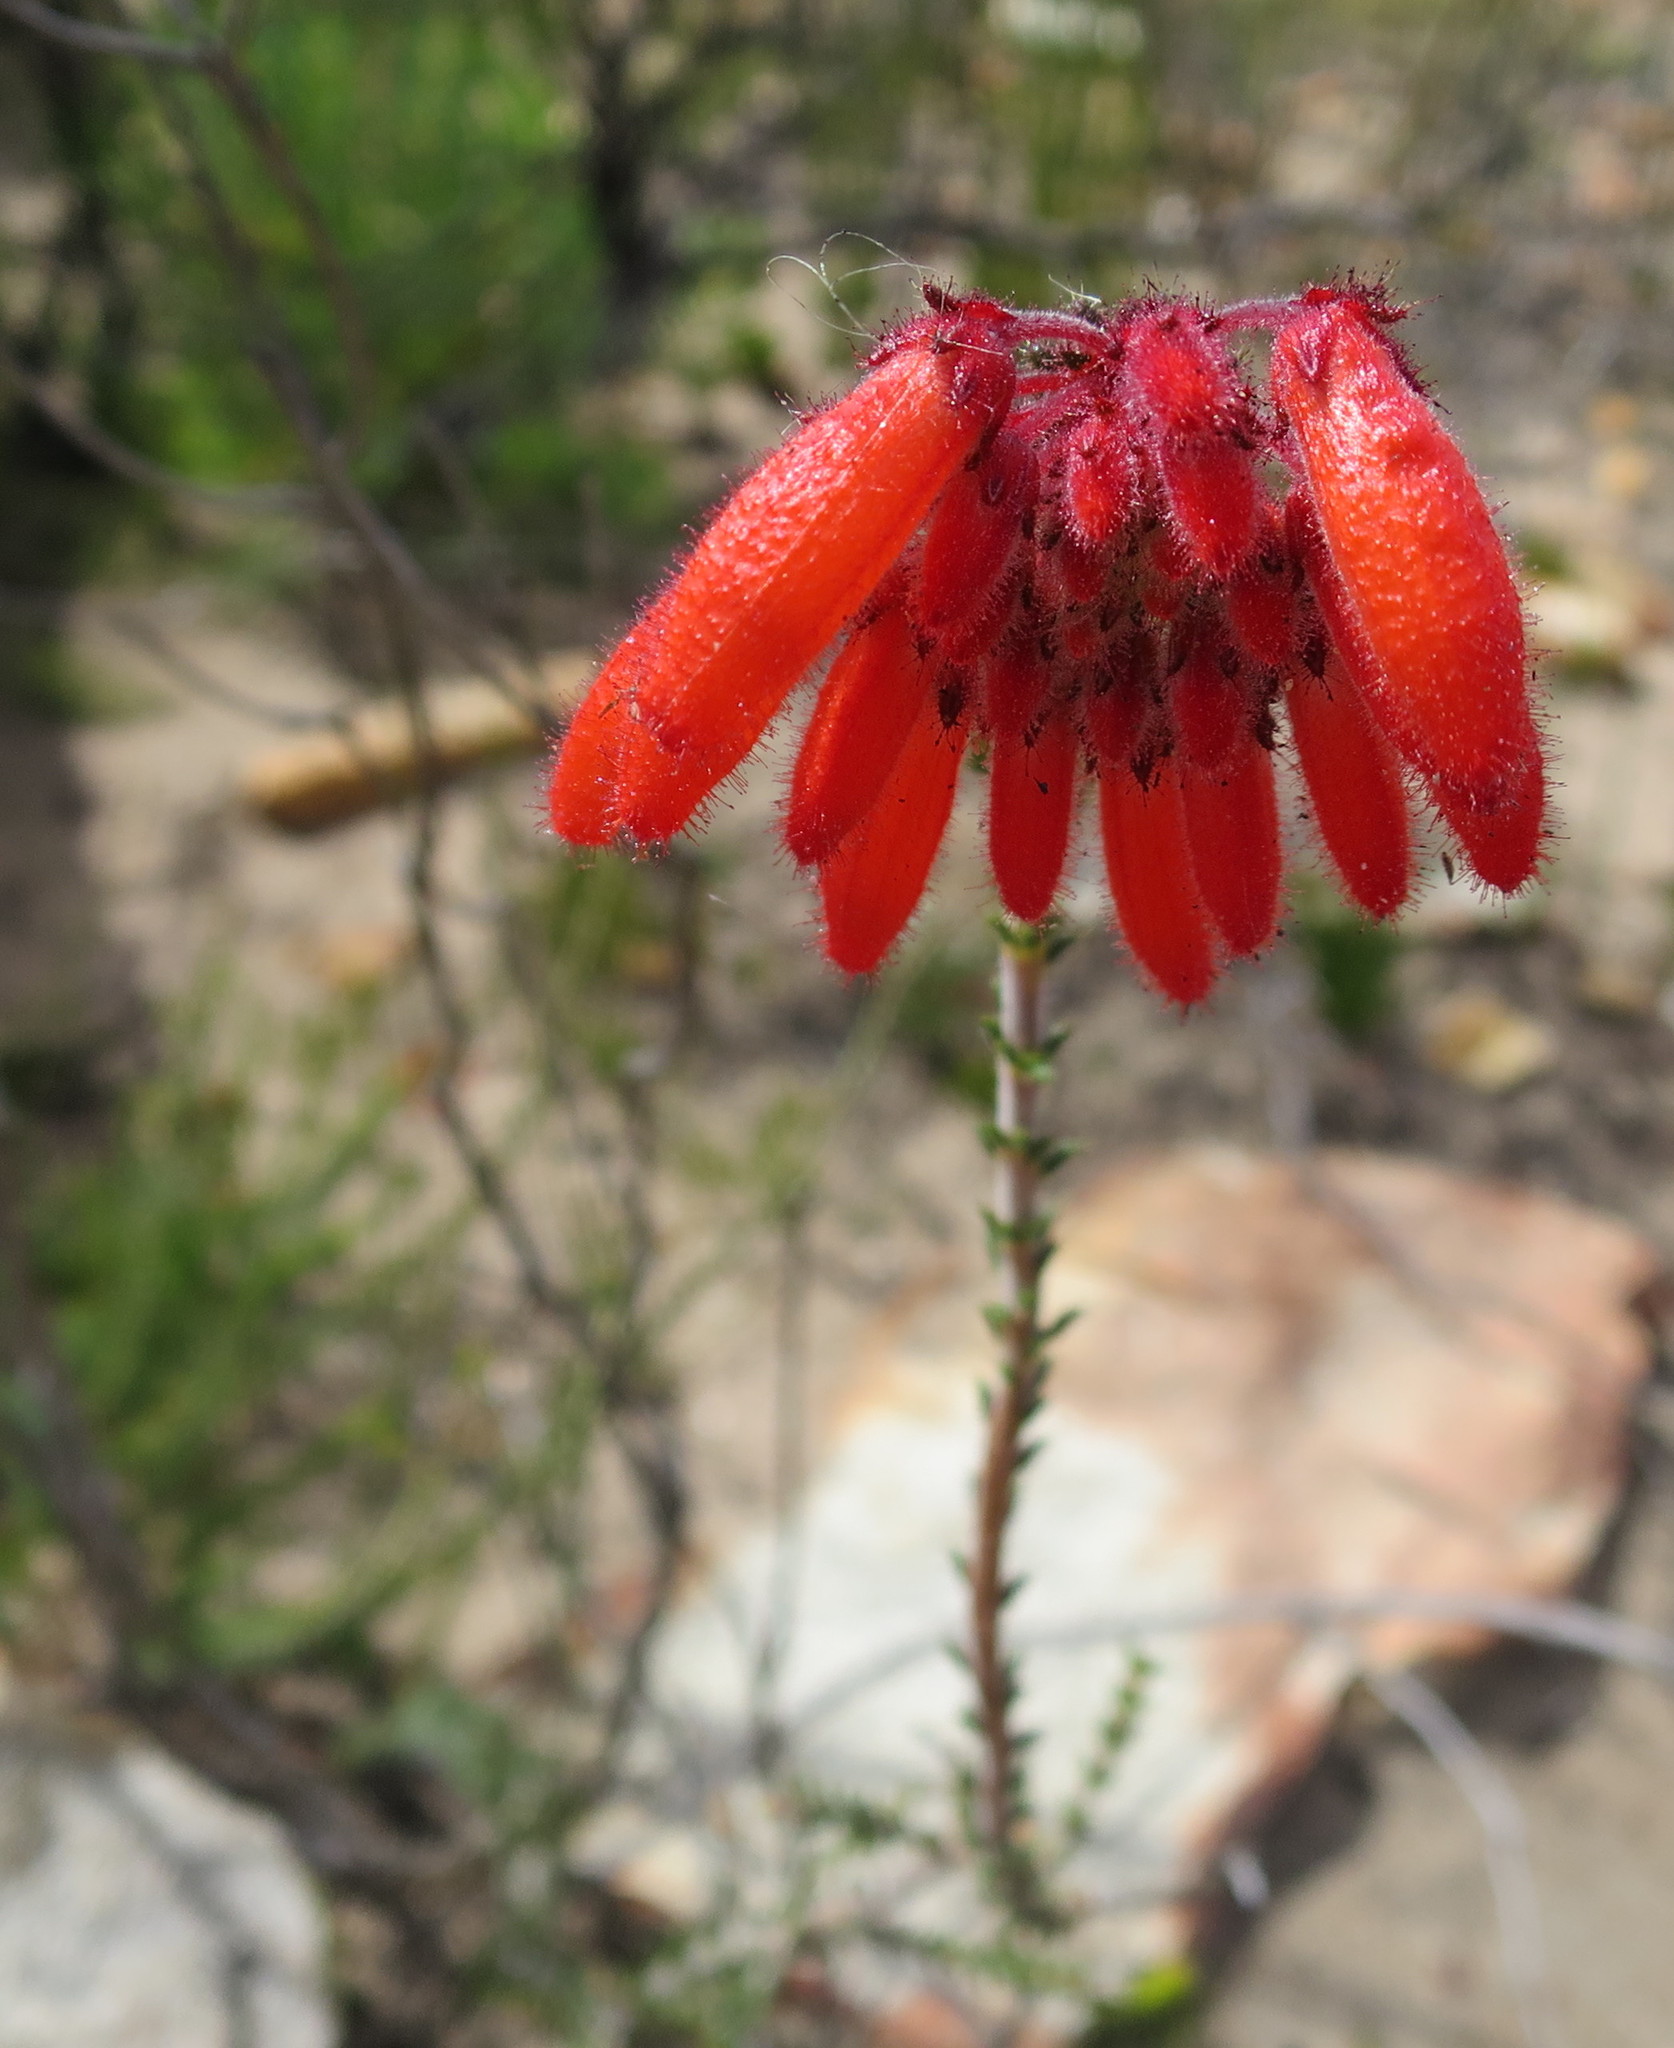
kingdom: Plantae
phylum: Tracheophyta
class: Magnoliopsida
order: Ericales
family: Ericaceae
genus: Erica
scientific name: Erica cerinthoides
